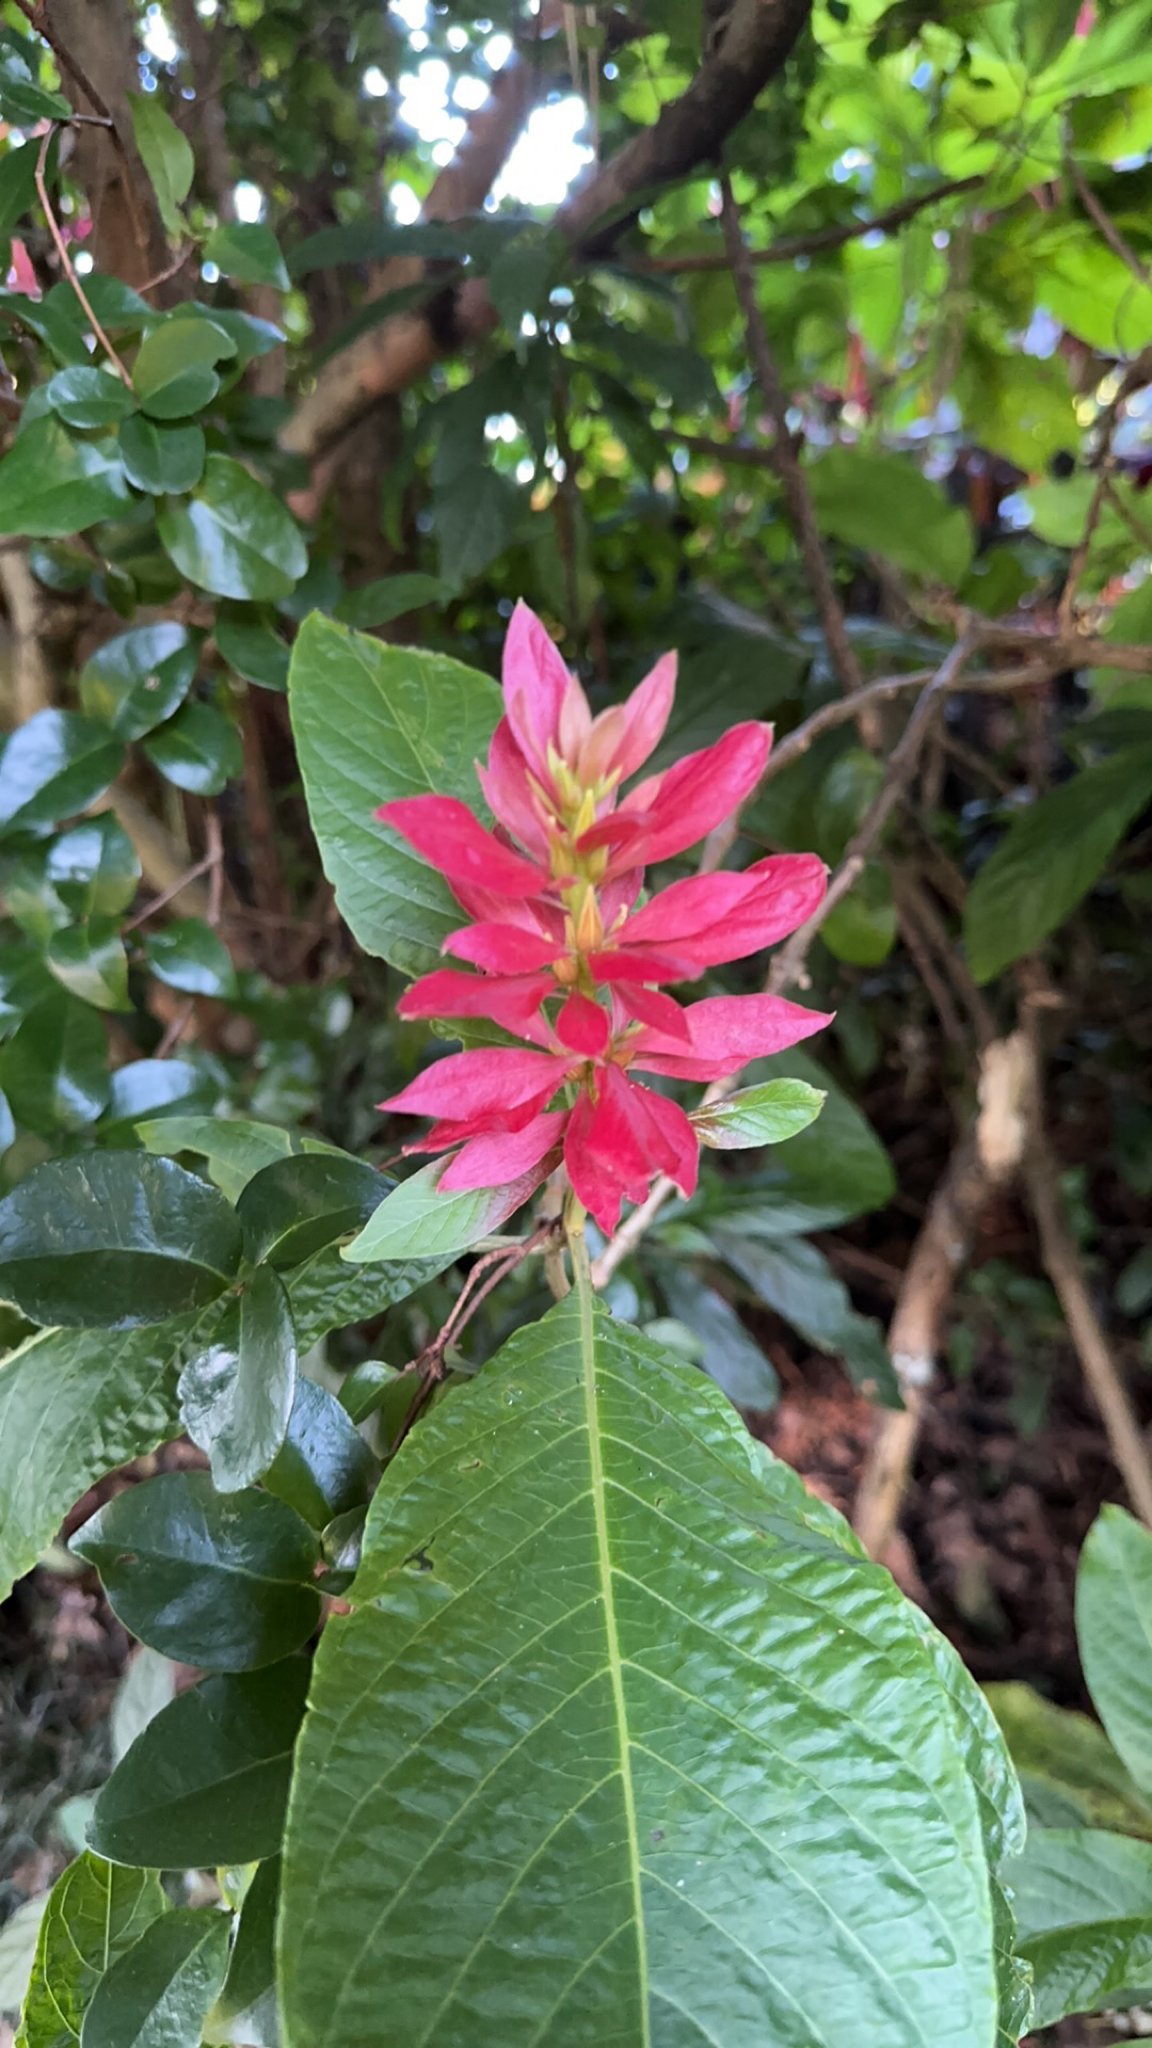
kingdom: Plantae
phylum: Tracheophyta
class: Magnoliopsida
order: Lamiales
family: Acanthaceae
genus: Megaskepasma
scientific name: Megaskepasma erythrochlamys
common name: Brazilian red-cloak
